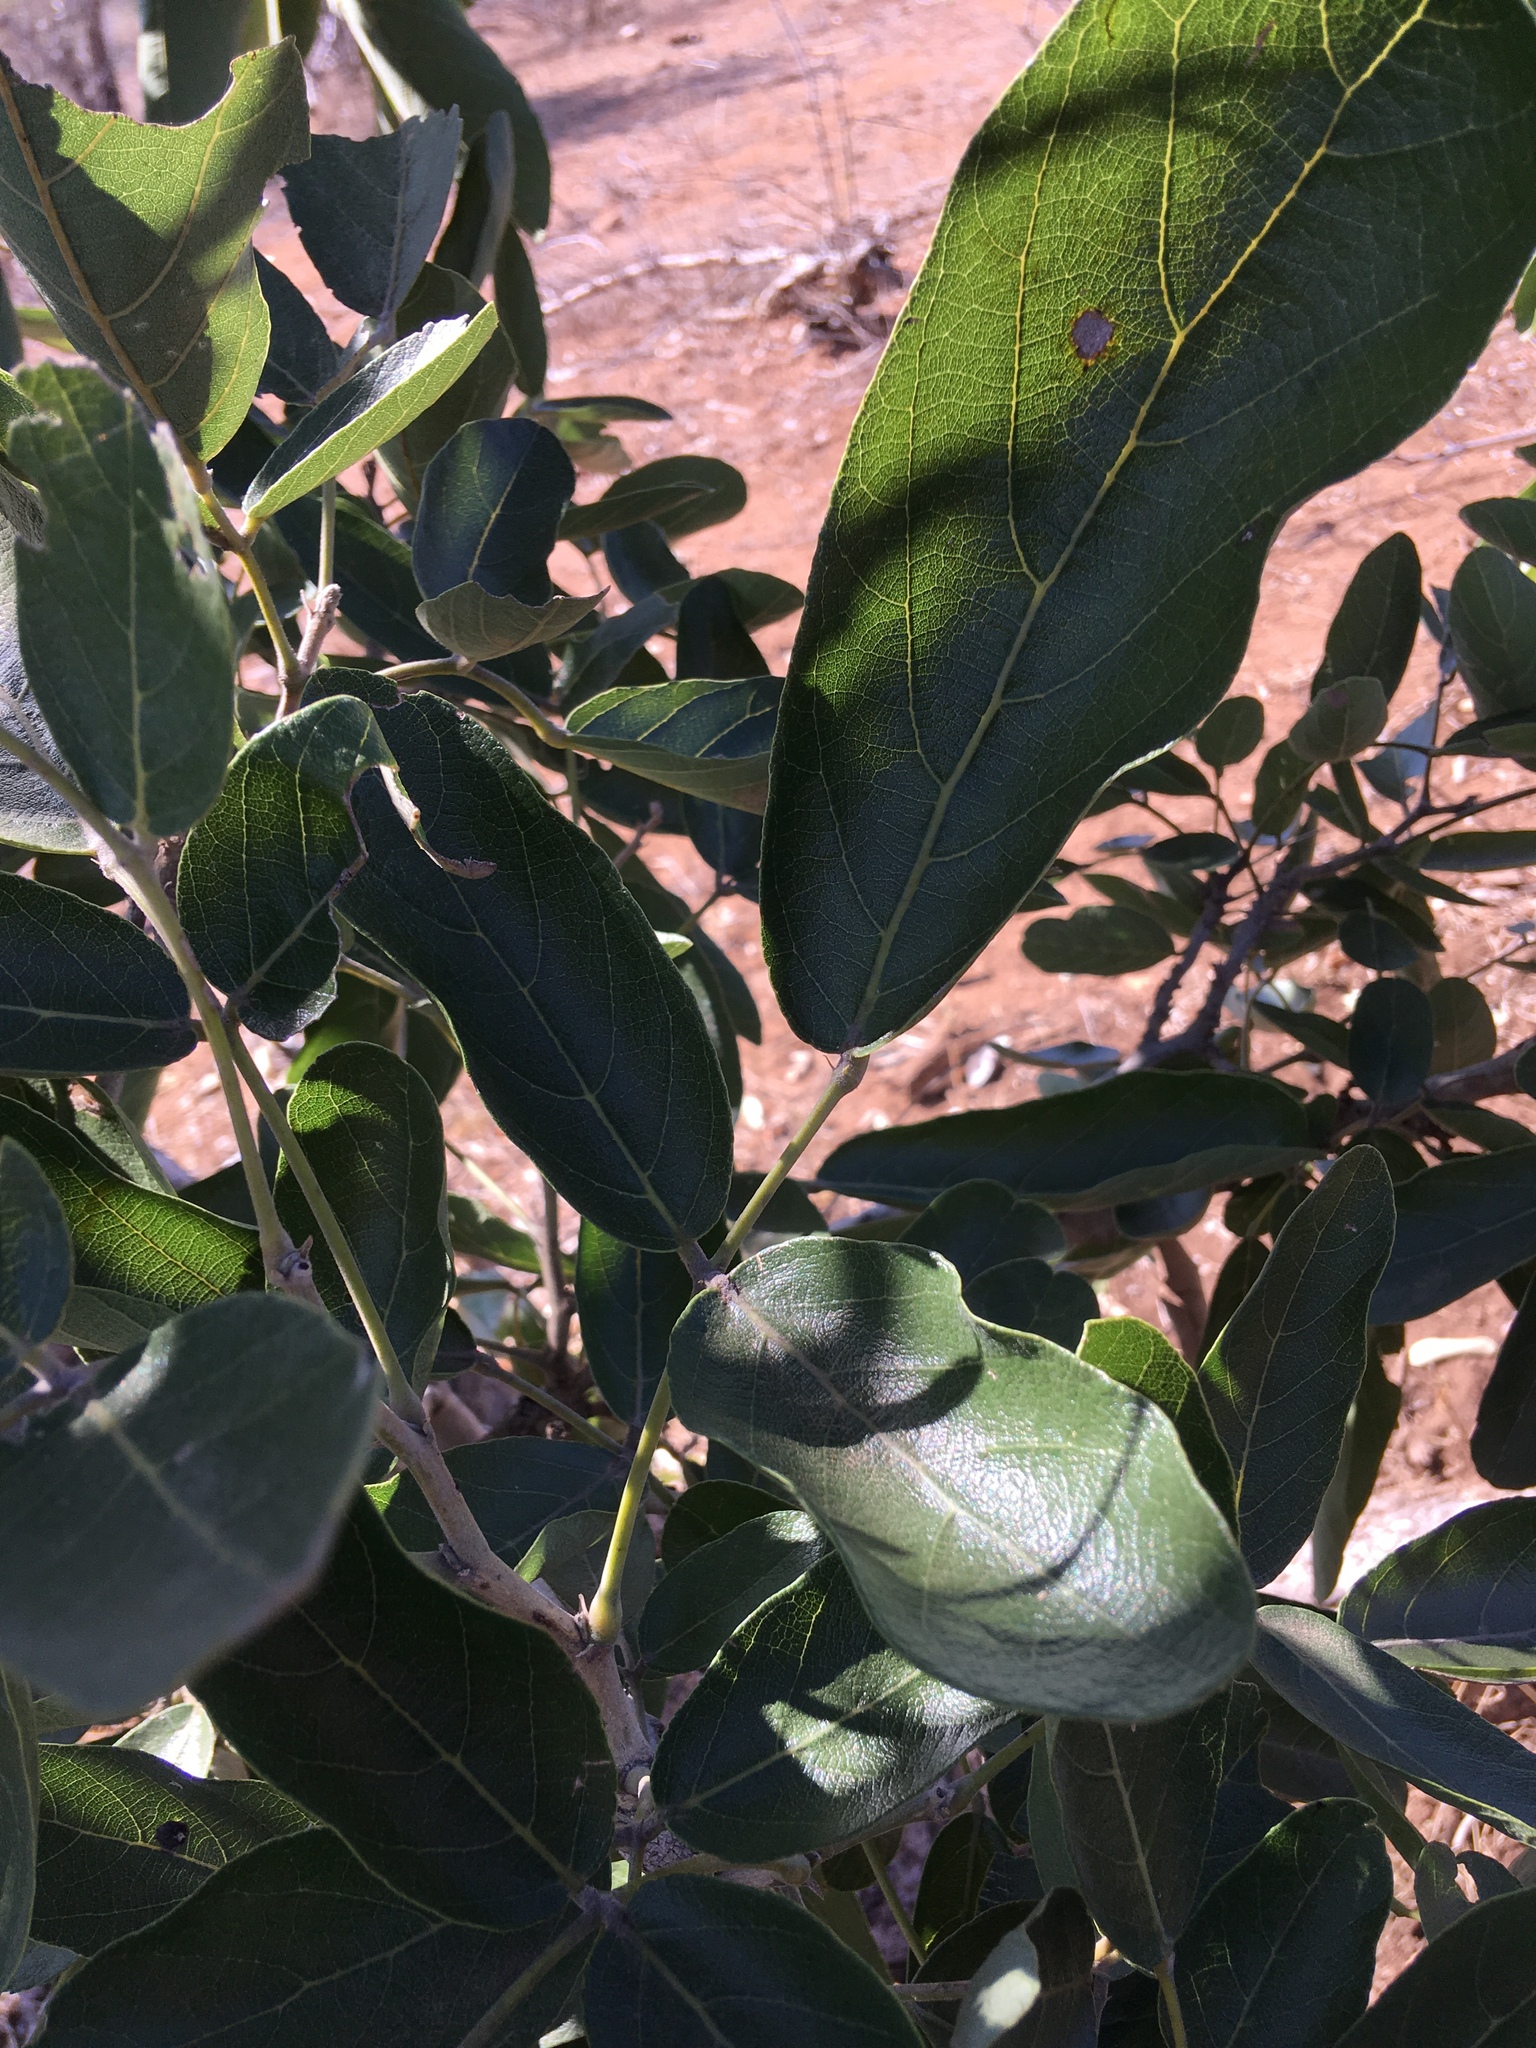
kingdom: Plantae
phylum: Tracheophyta
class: Magnoliopsida
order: Fabales
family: Fabaceae
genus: Philenoptera
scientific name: Philenoptera violacea
